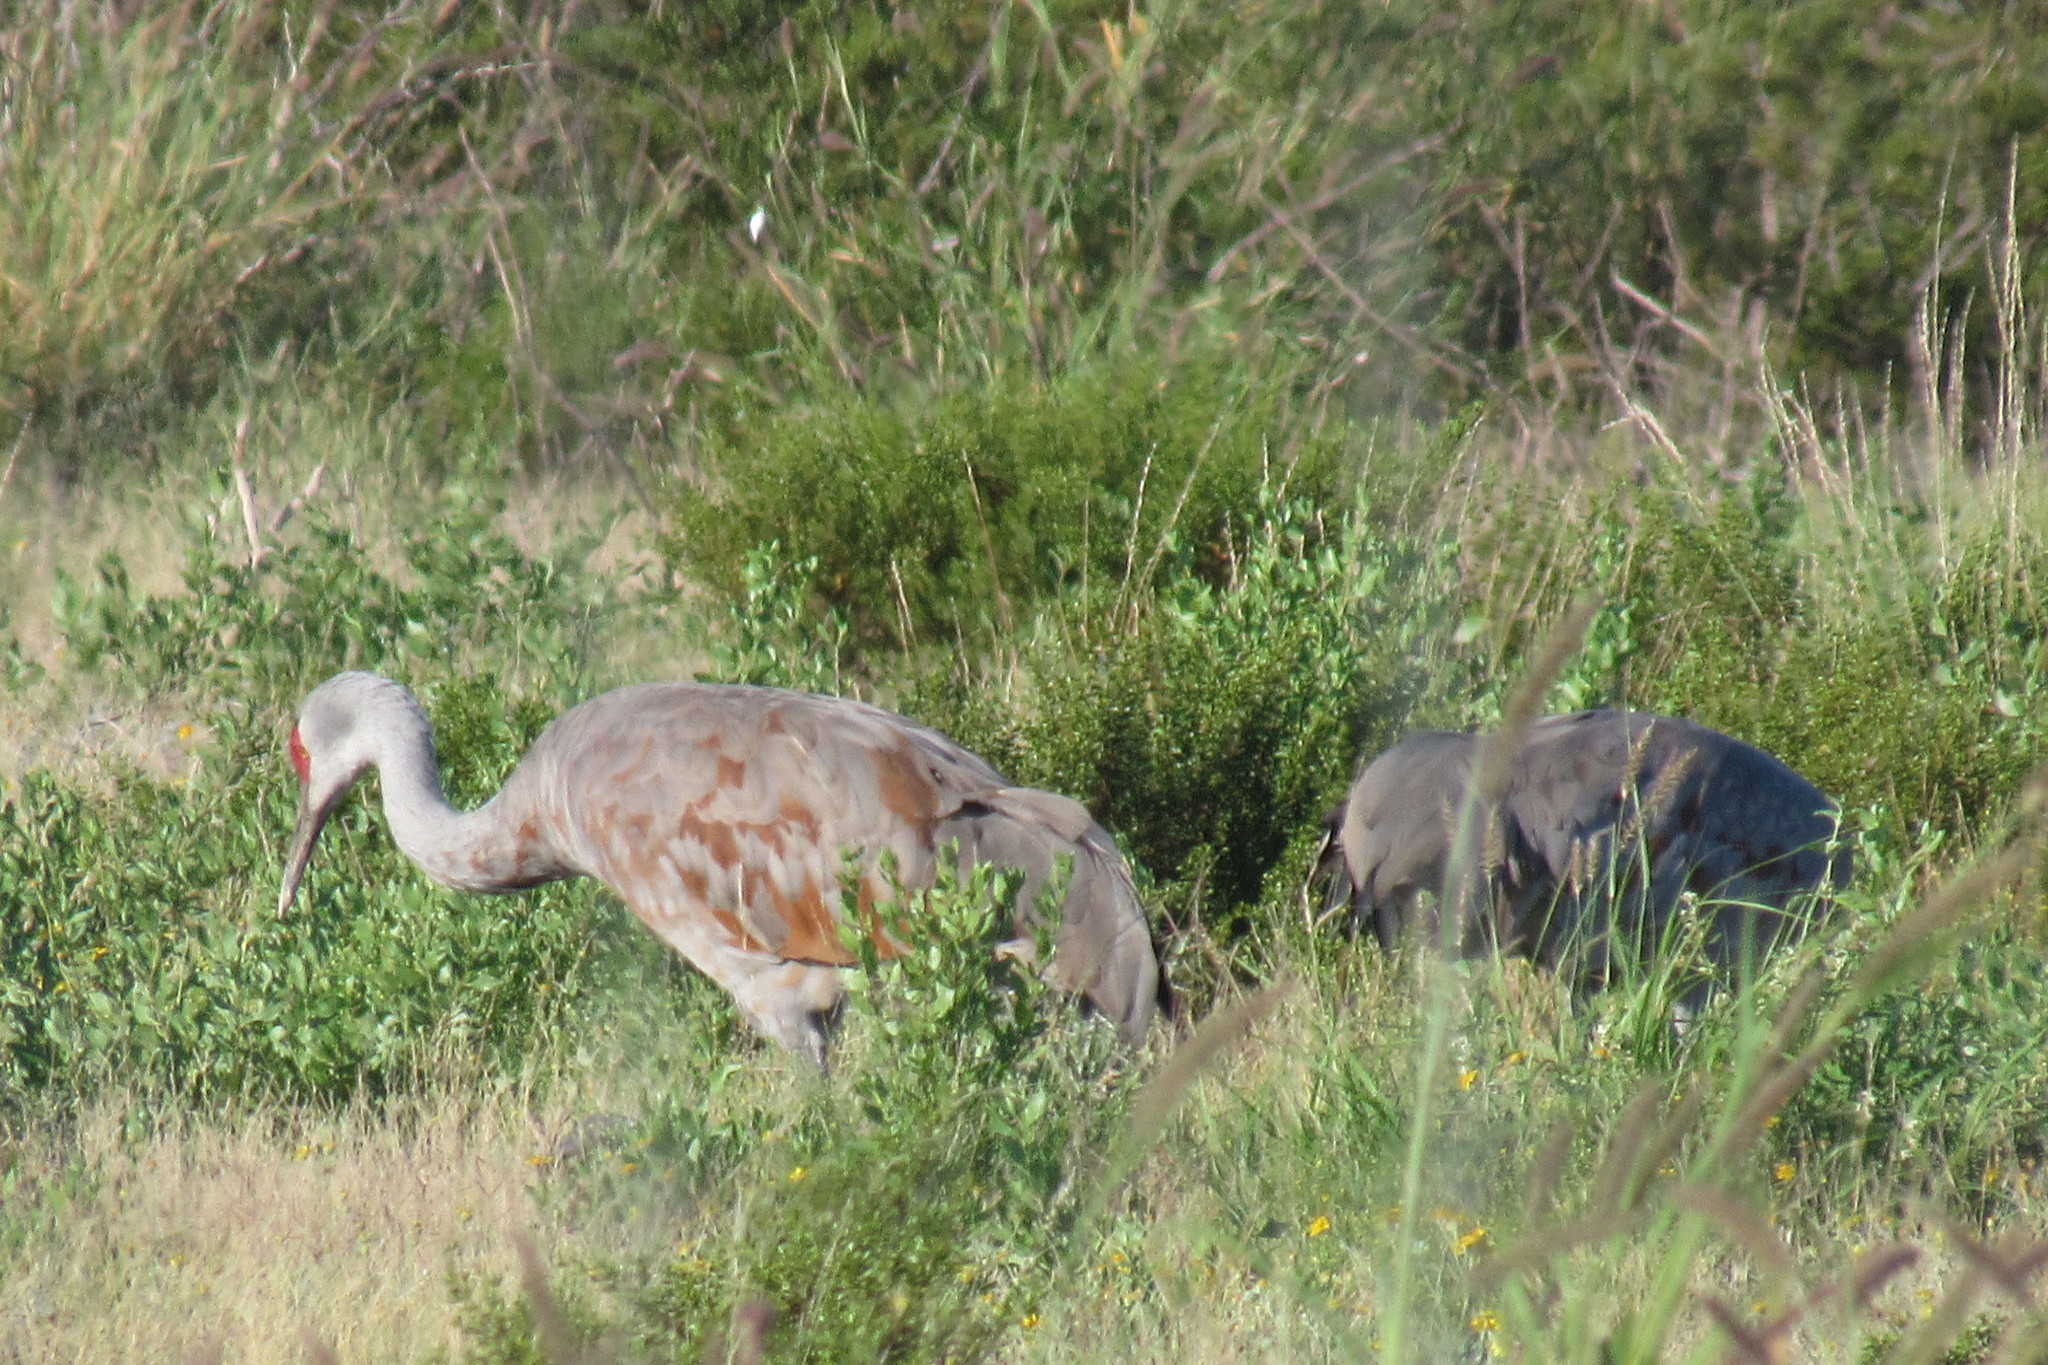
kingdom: Animalia
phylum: Chordata
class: Aves
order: Gruiformes
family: Gruidae
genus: Grus
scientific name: Grus canadensis
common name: Sandhill crane
